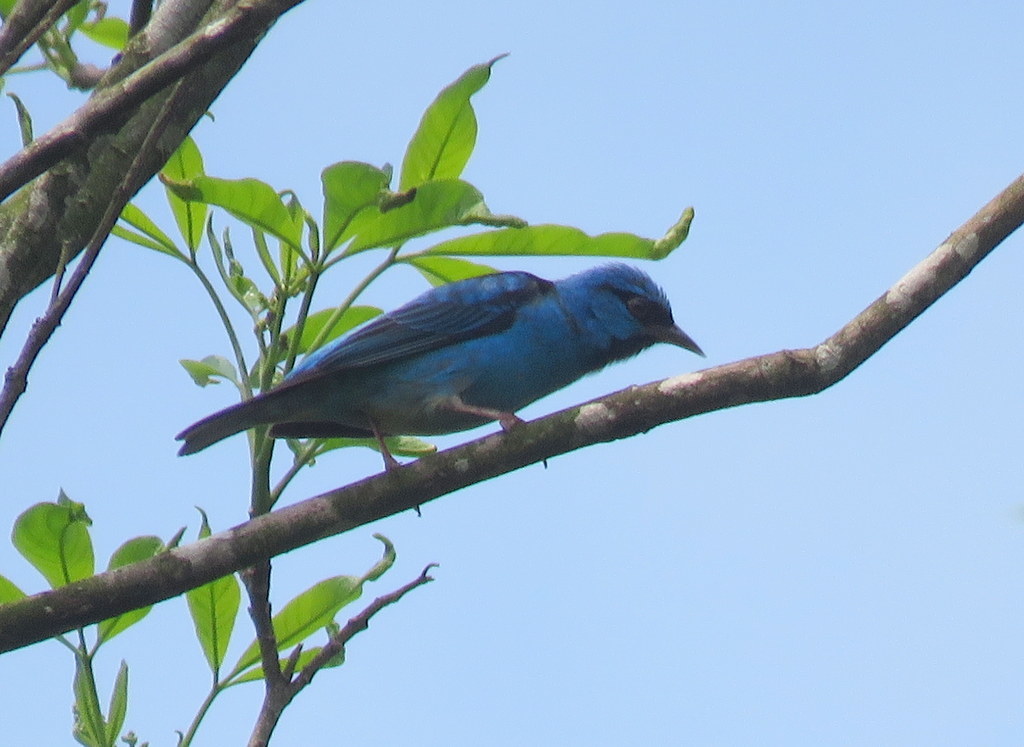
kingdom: Animalia
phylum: Chordata
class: Aves
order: Passeriformes
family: Thraupidae
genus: Dacnis
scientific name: Dacnis cayana
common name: Blue dacnis
